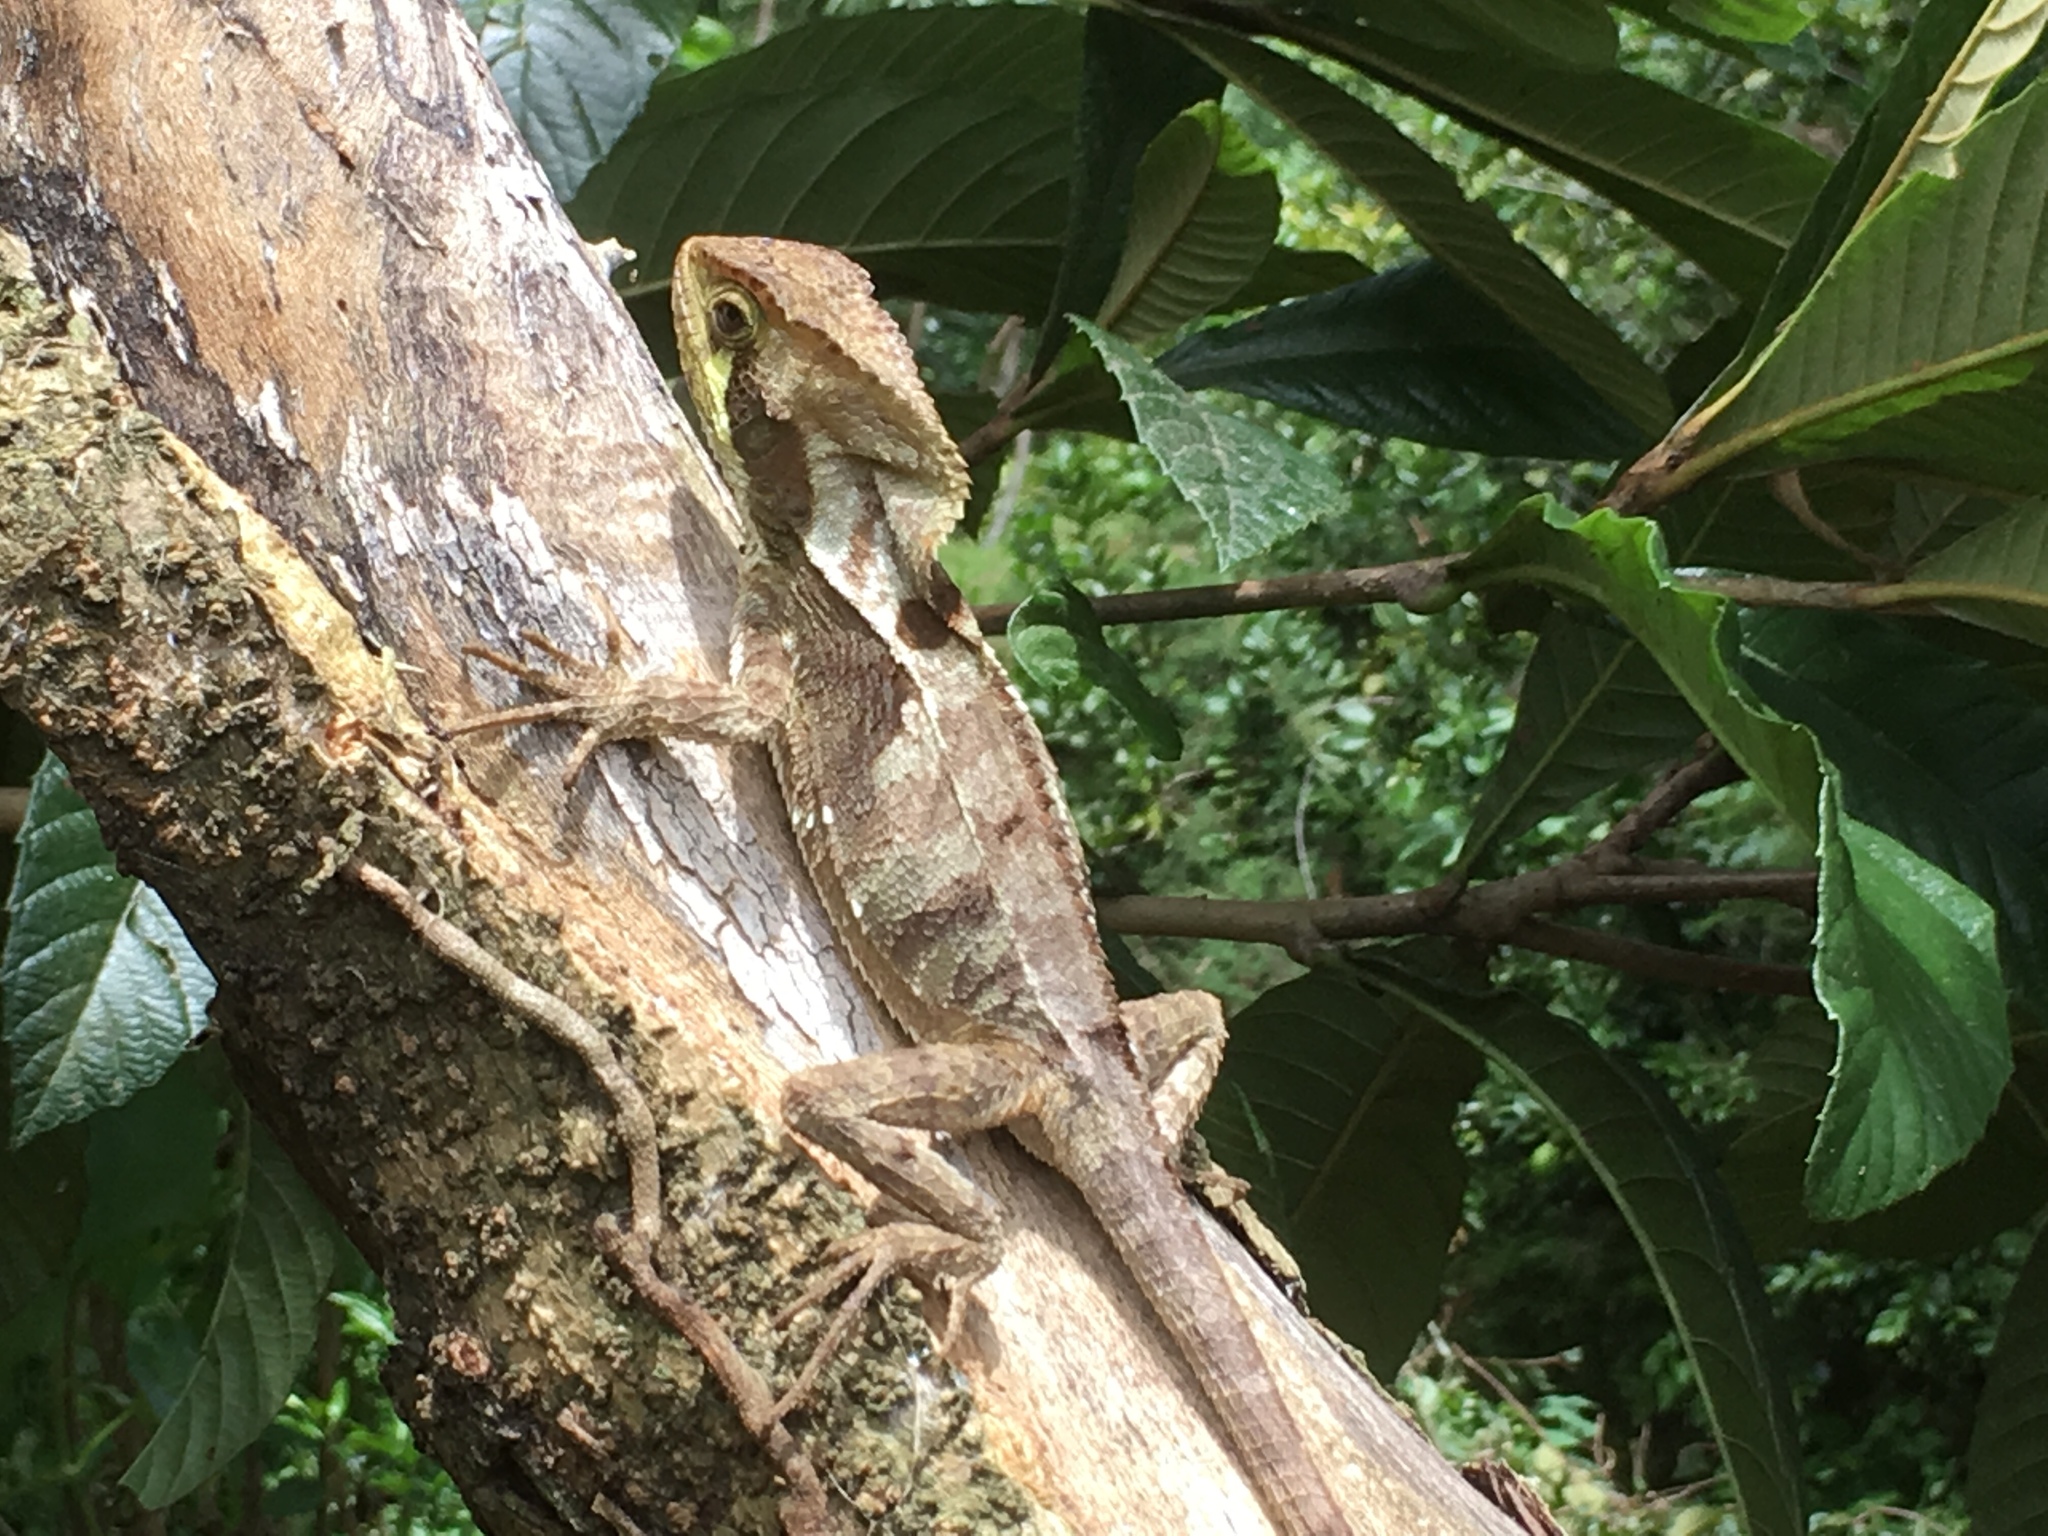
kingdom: Animalia
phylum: Chordata
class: Squamata
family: Corytophanidae
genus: Corytophanes
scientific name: Corytophanes percarinatus
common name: Keeled helmeted iguana
